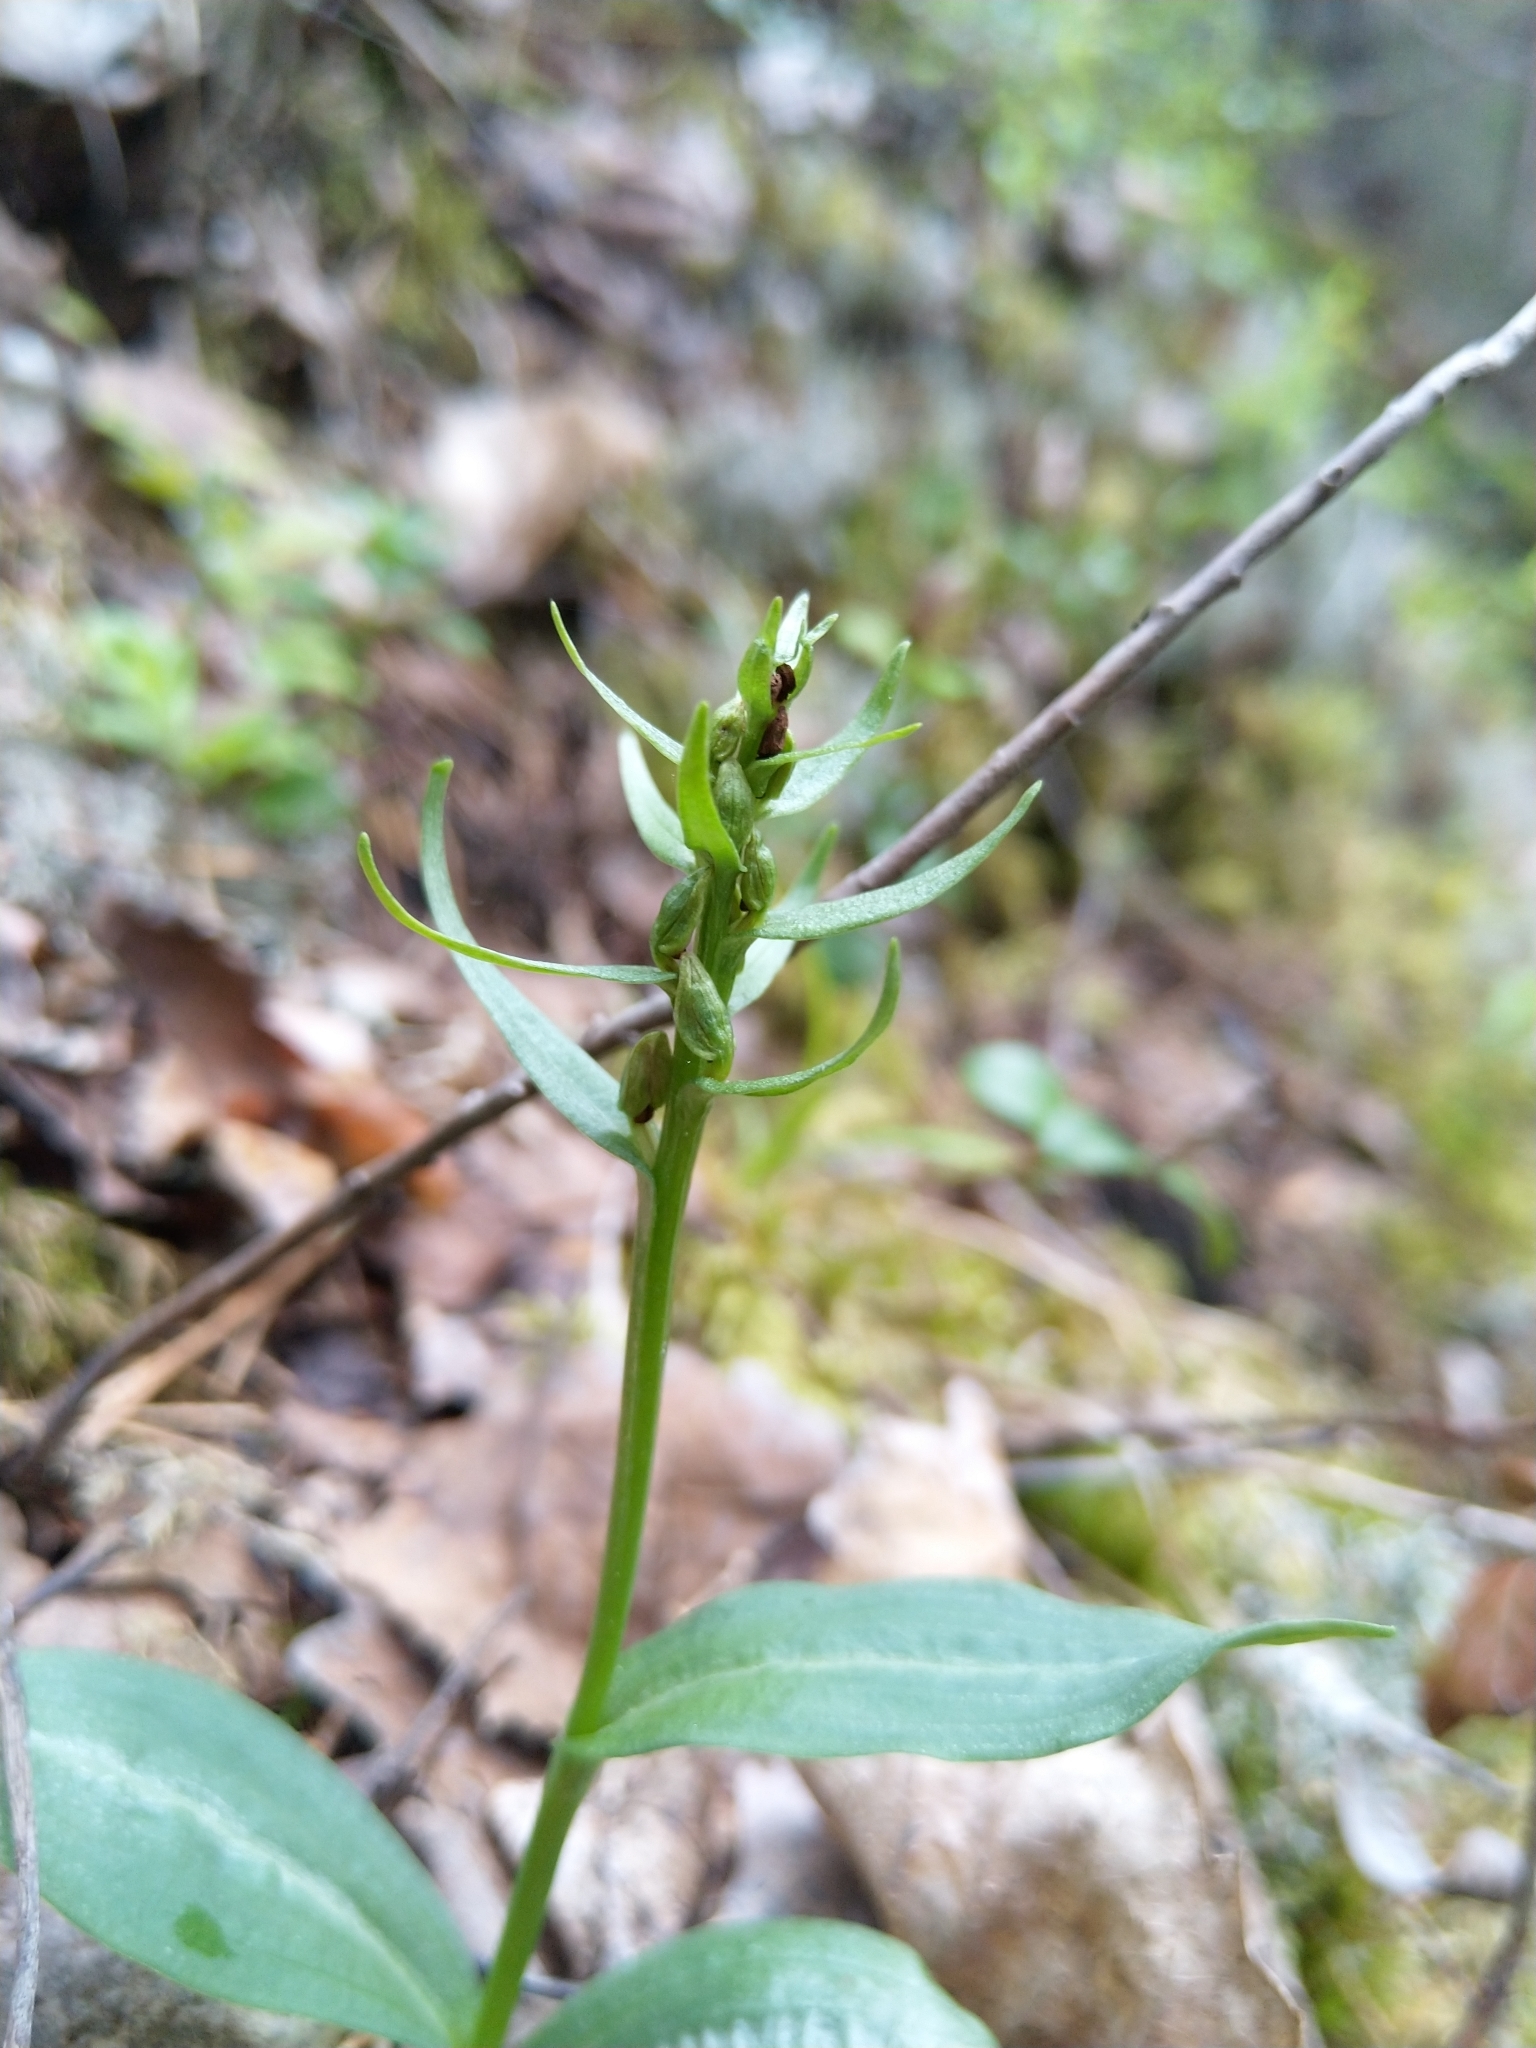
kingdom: Plantae
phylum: Tracheophyta
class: Liliopsida
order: Asparagales
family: Orchidaceae
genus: Dactylorhiza
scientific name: Dactylorhiza viridis
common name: Longbract frog orchid
